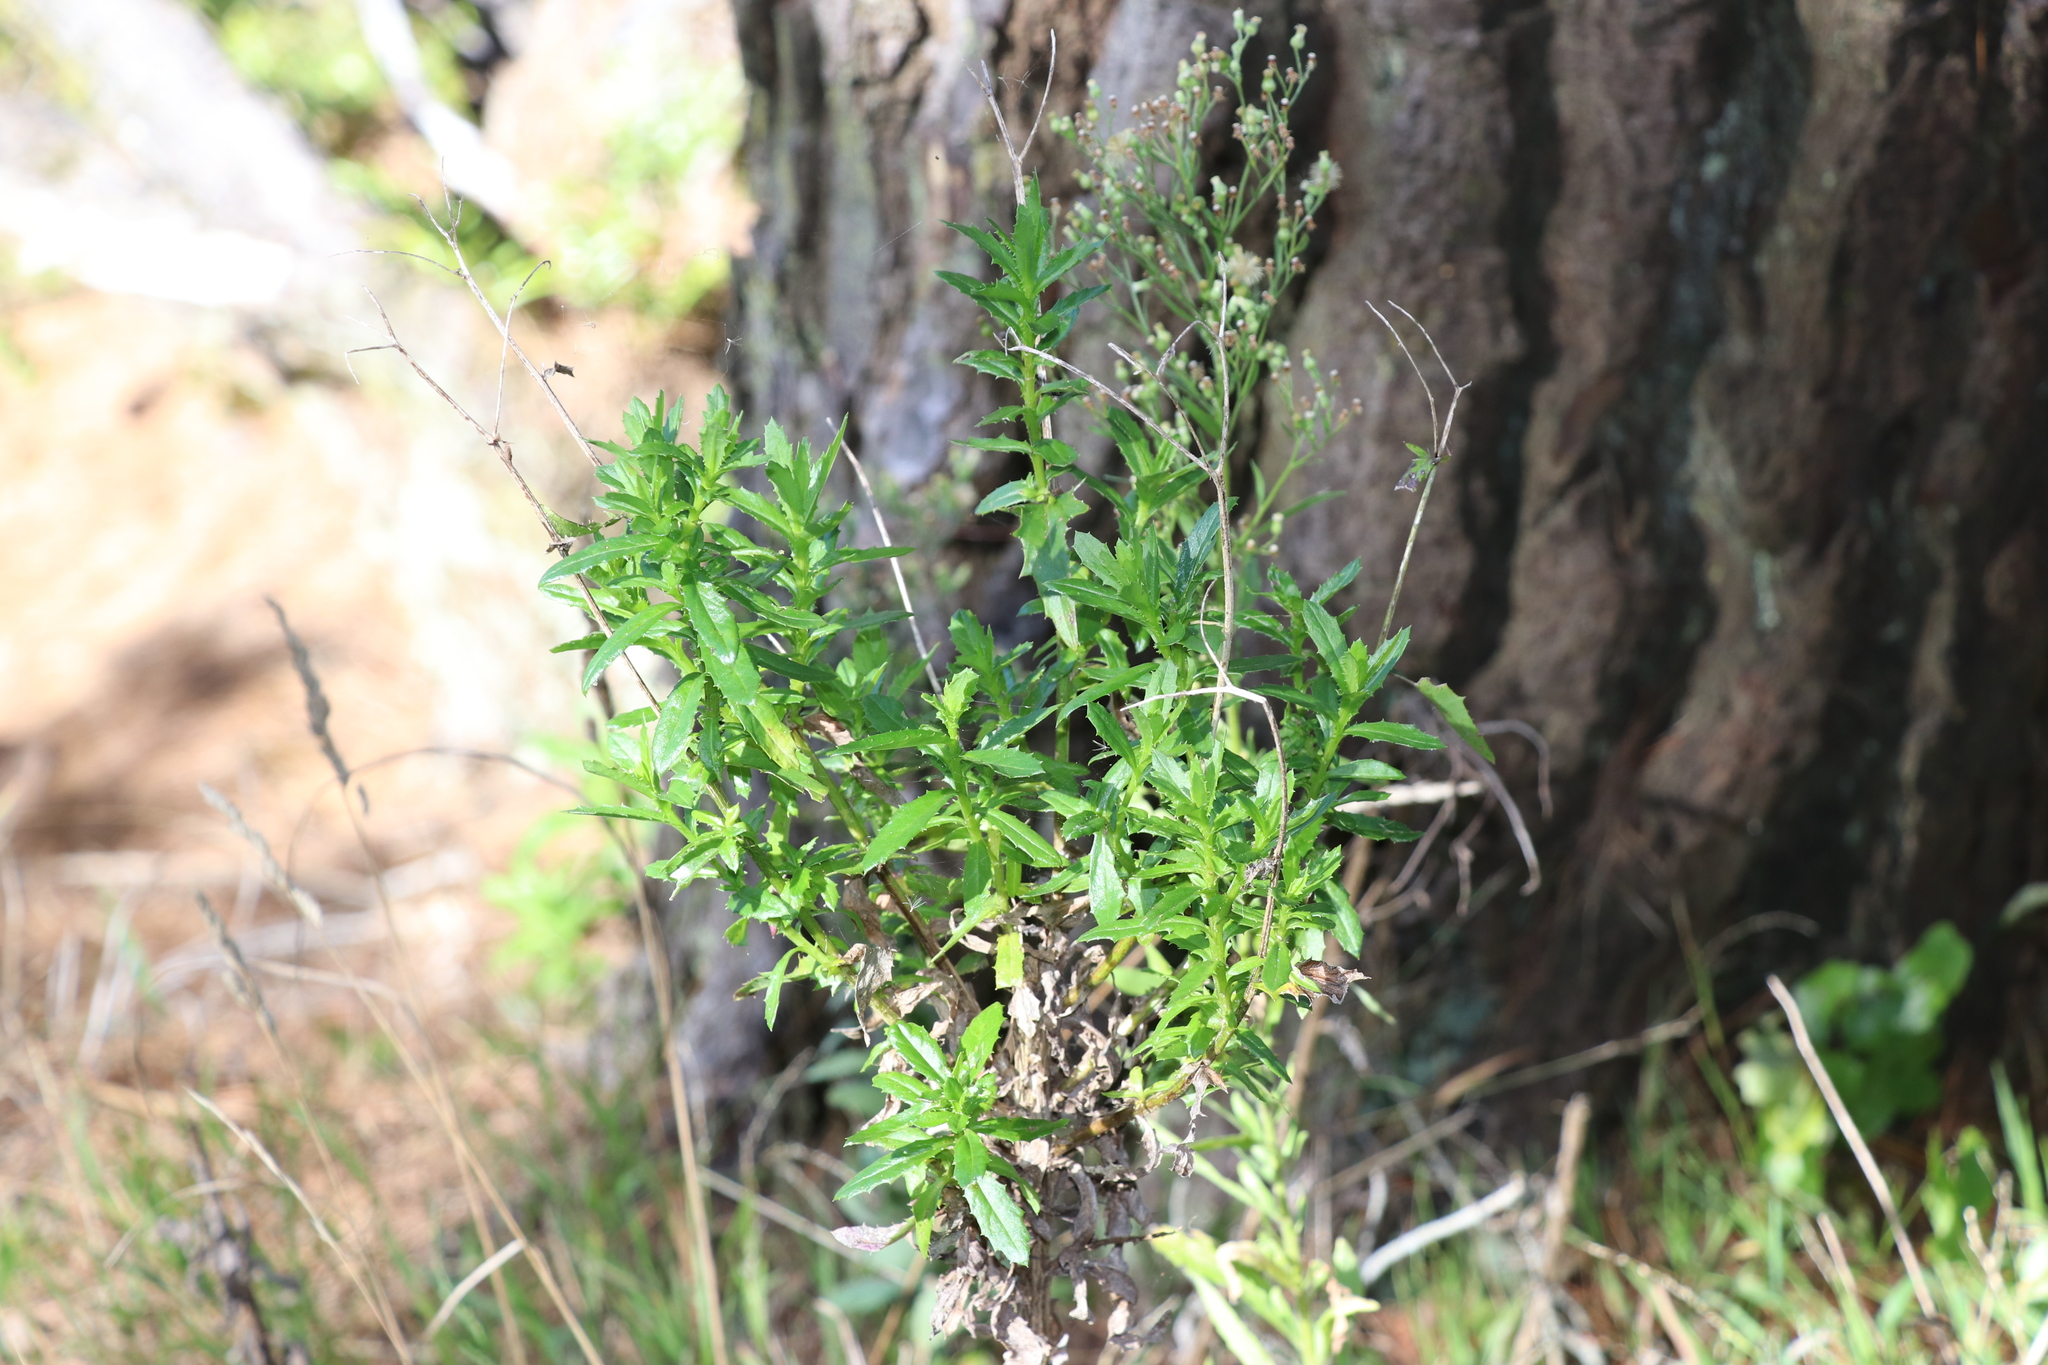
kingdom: Plantae
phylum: Tracheophyta
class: Magnoliopsida
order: Asterales
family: Asteraceae
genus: Senecio
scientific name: Senecio glastifolius
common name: Woad-leaved ragwort
